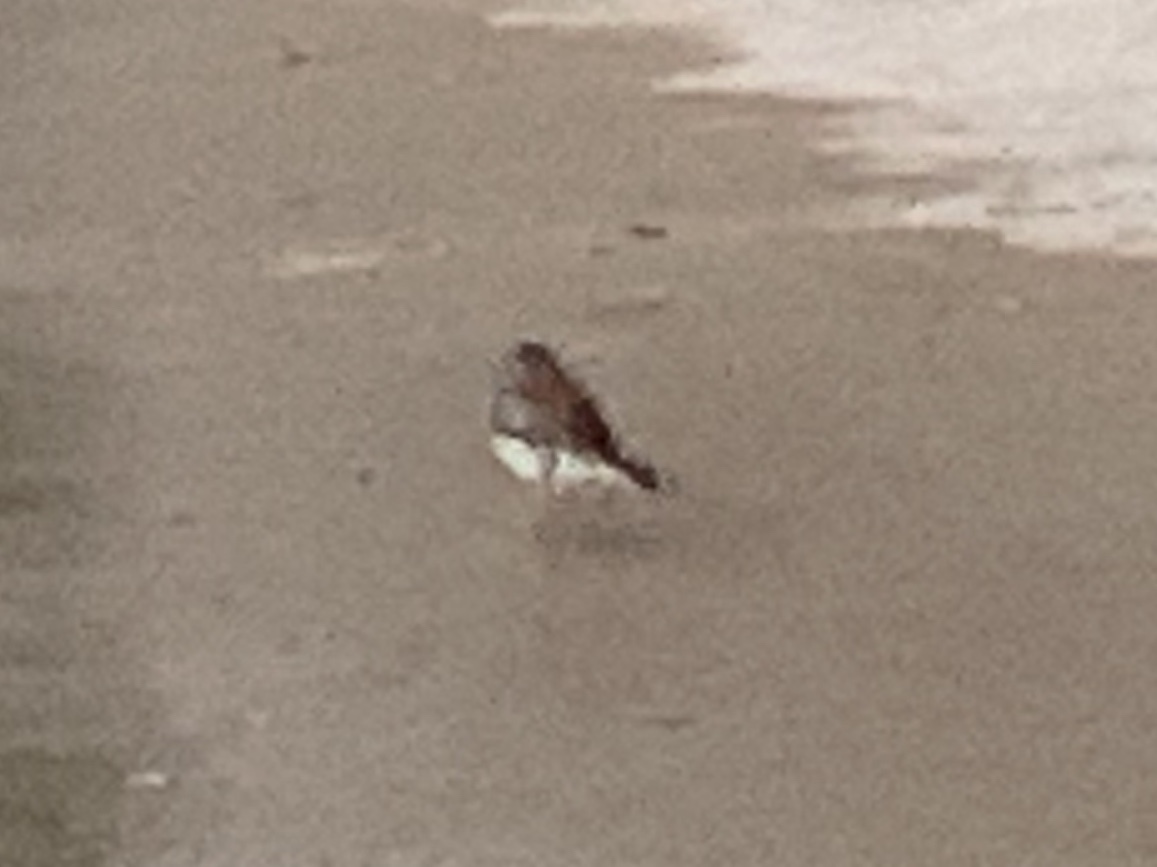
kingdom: Animalia
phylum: Chordata
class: Aves
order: Passeriformes
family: Passerellidae
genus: Junco
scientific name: Junco hyemalis
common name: Dark-eyed junco
